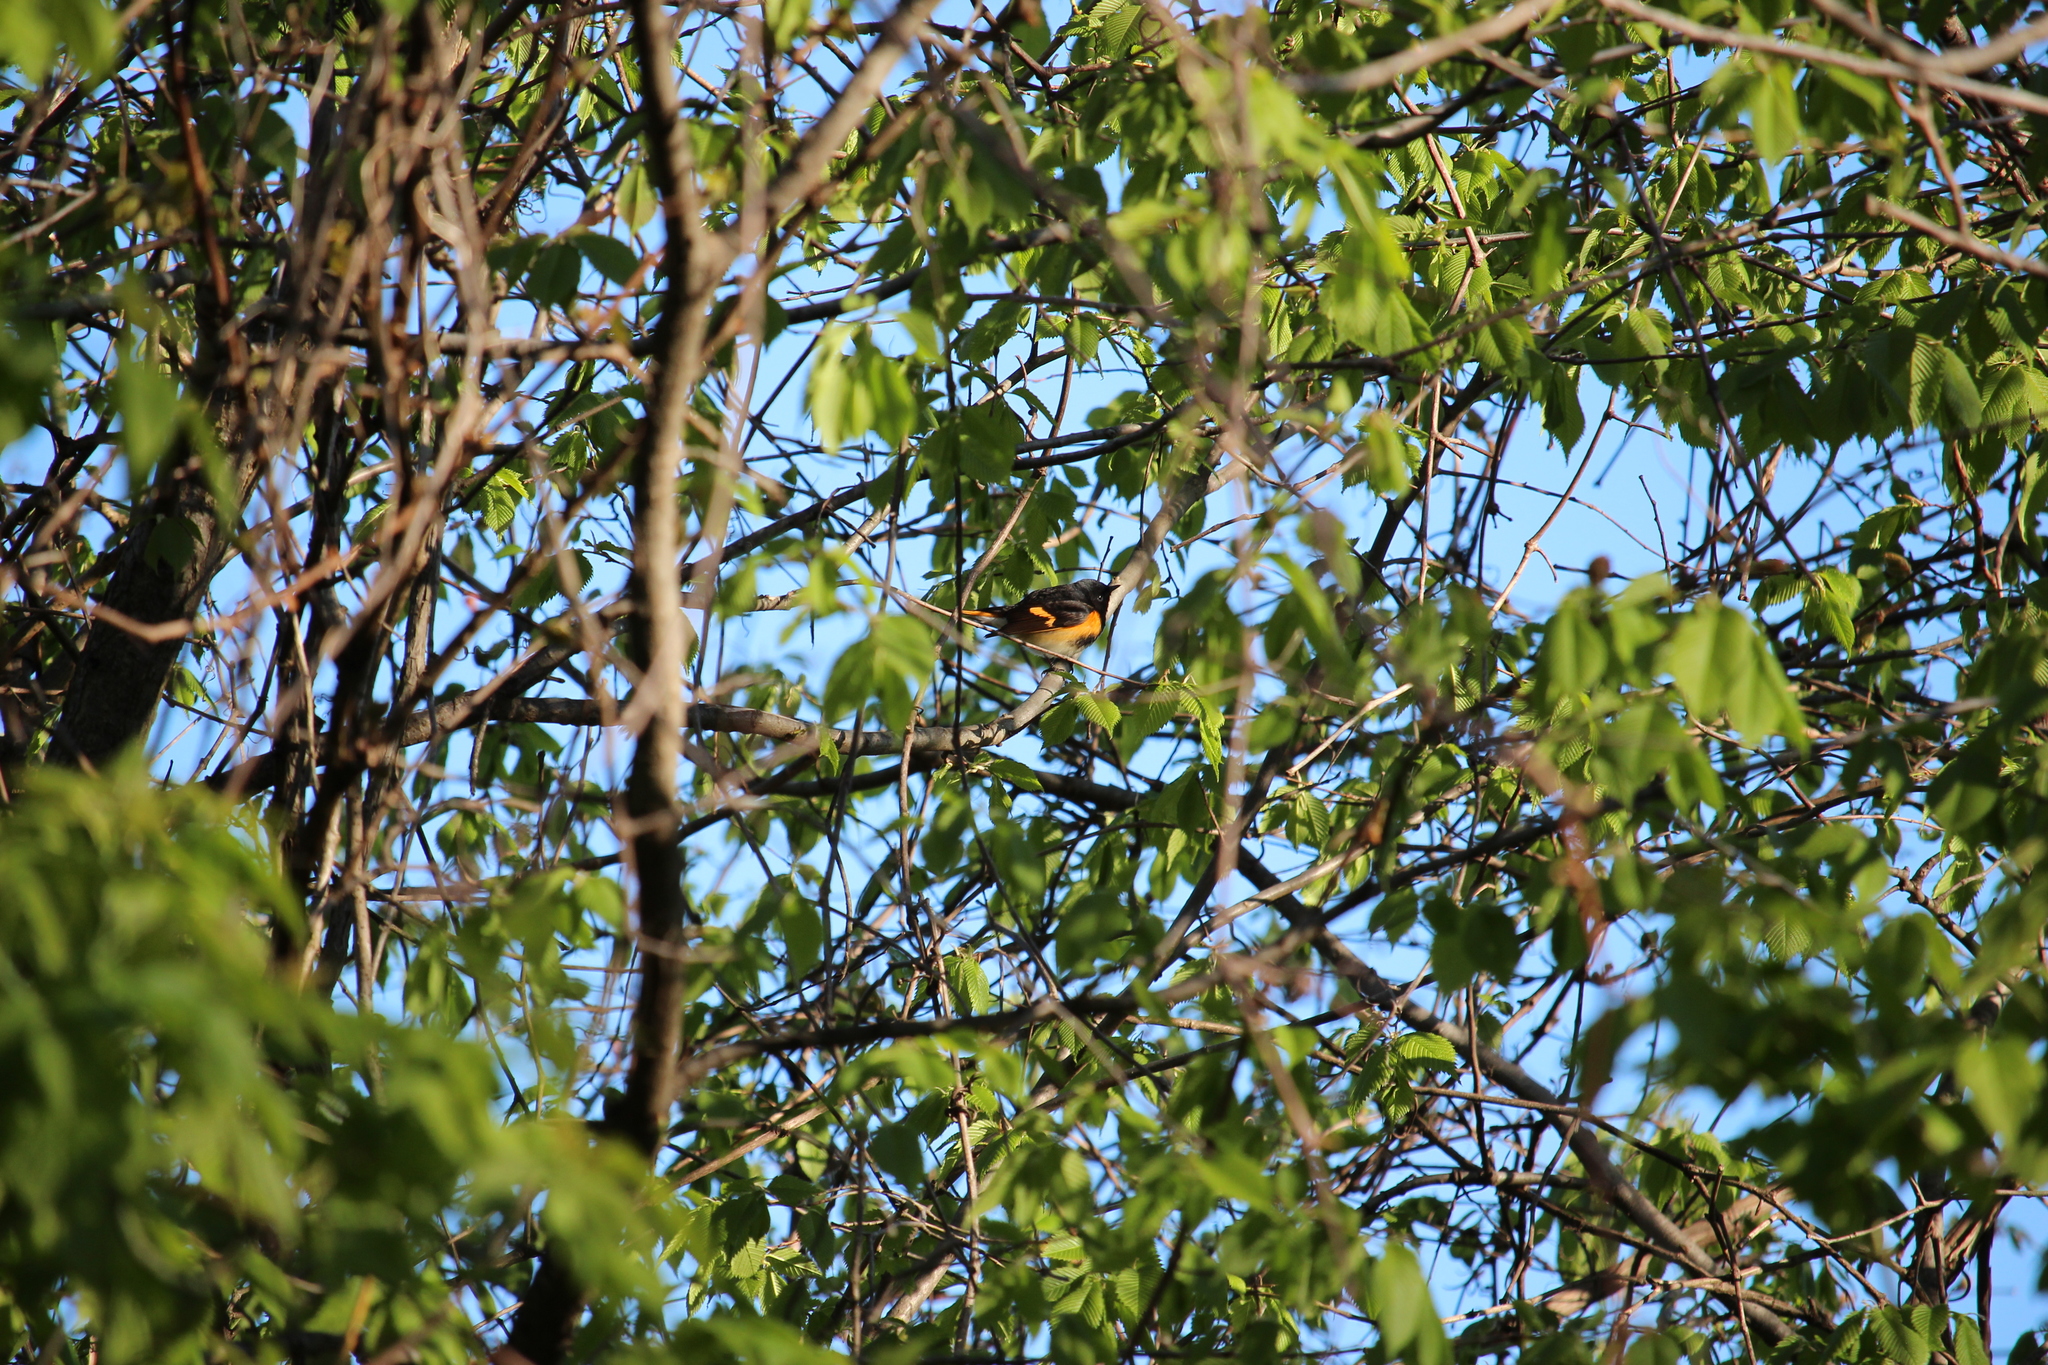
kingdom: Animalia
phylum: Chordata
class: Aves
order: Passeriformes
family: Parulidae
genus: Setophaga
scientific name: Setophaga ruticilla
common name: American redstart
